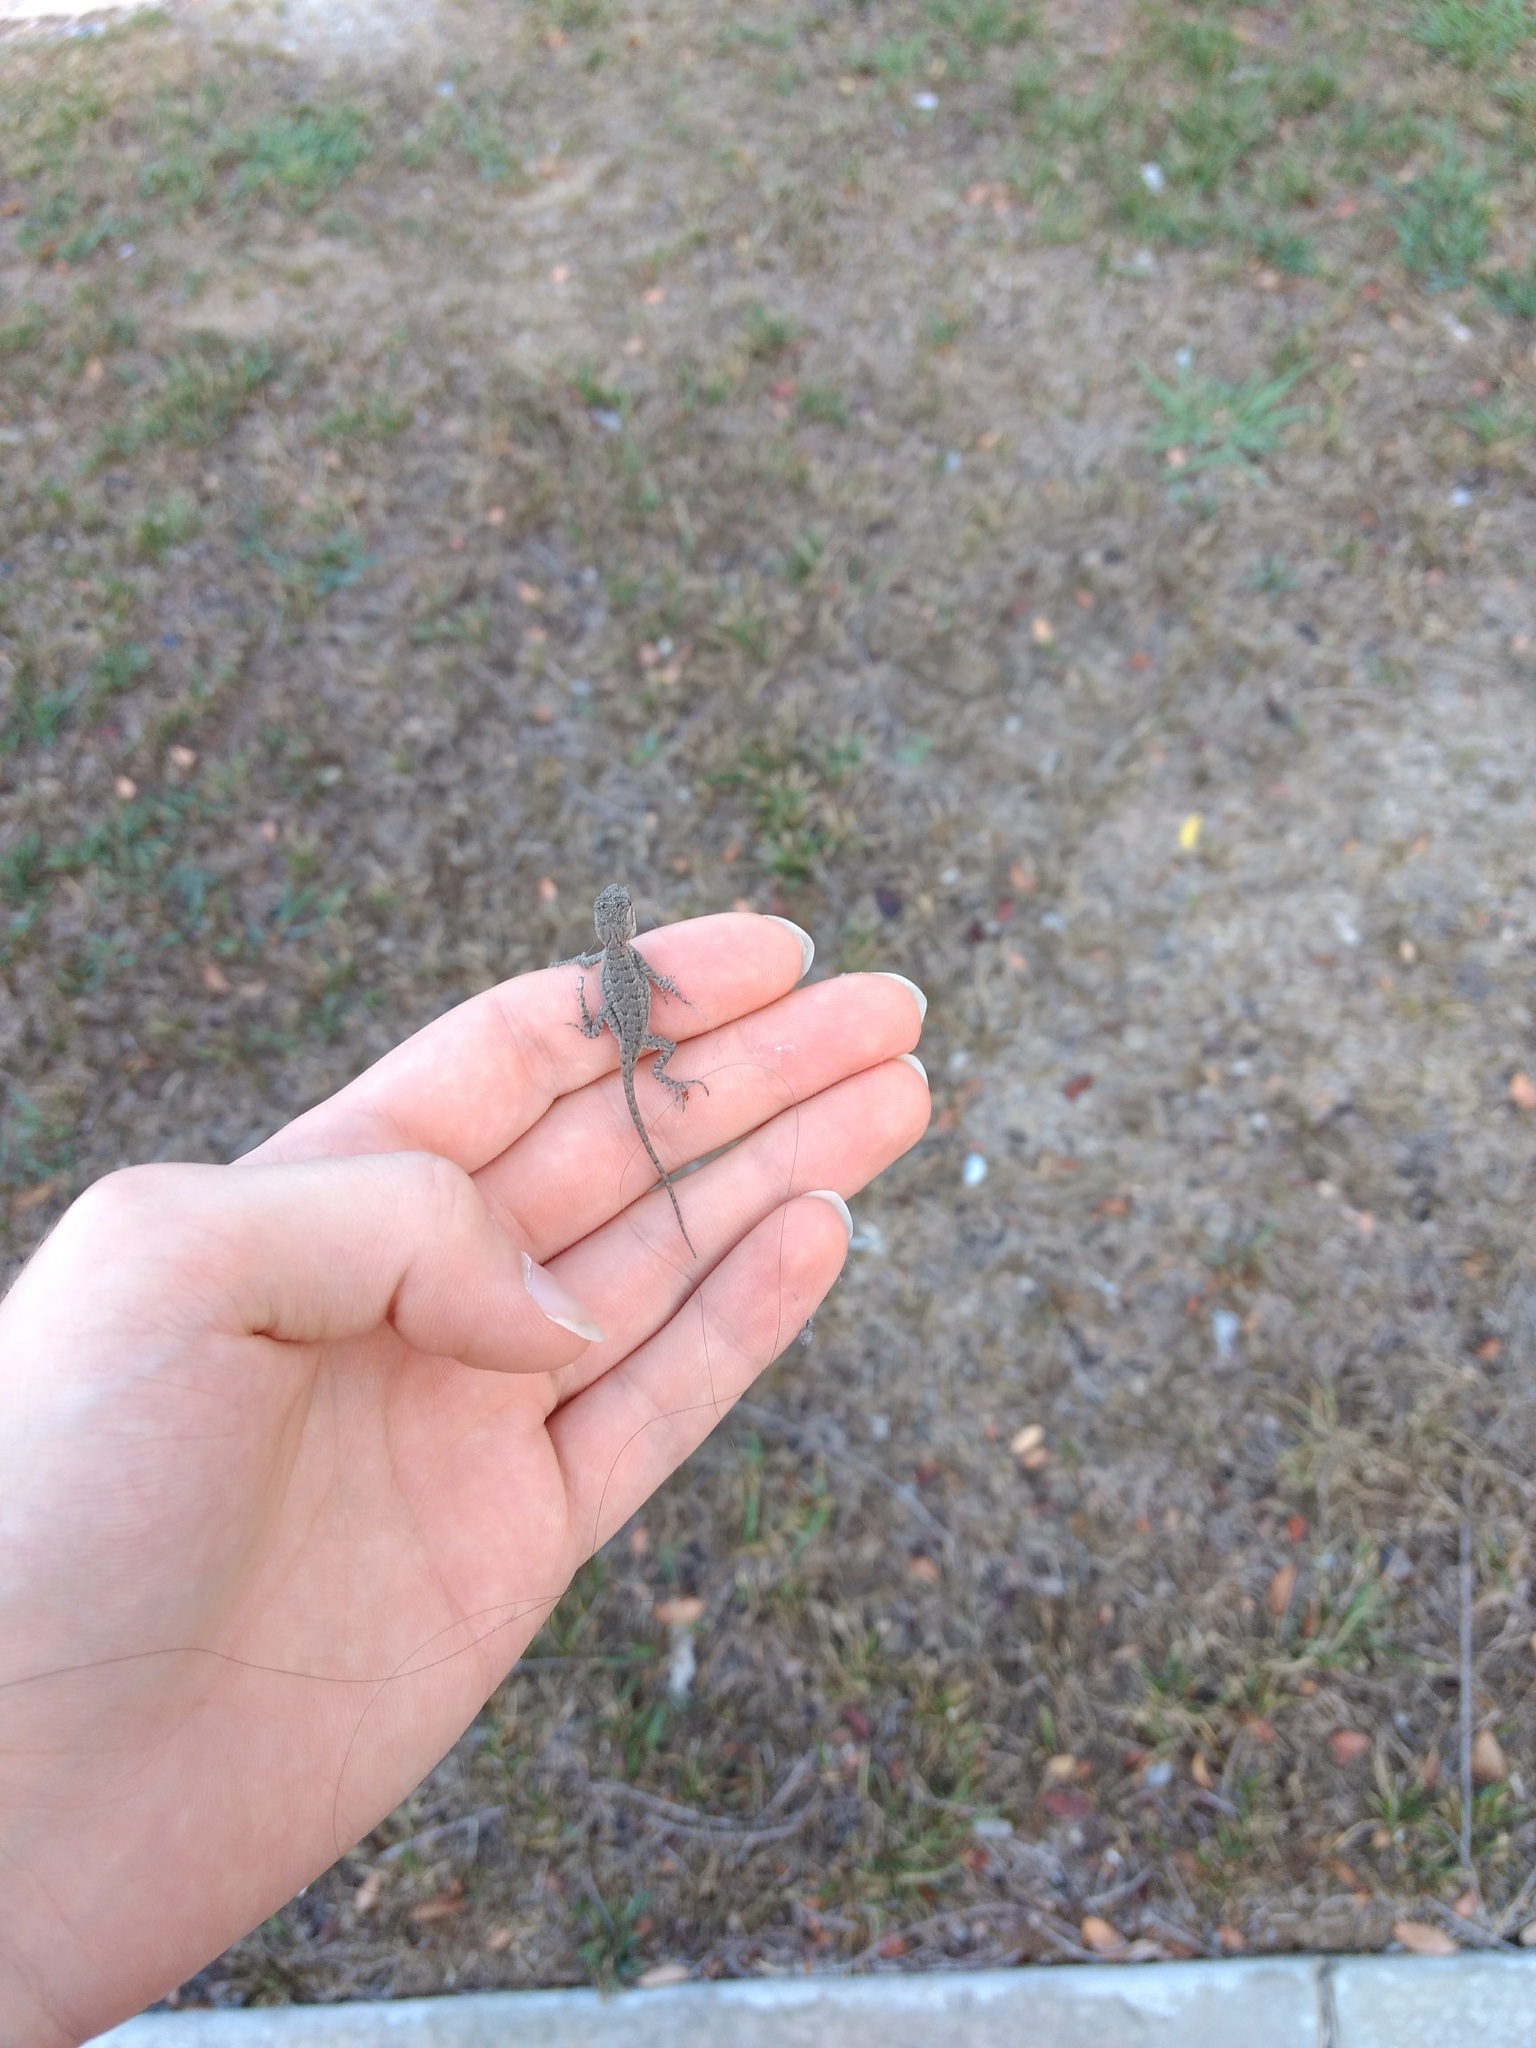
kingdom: Animalia
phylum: Chordata
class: Squamata
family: Phrynosomatidae
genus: Sceloporus
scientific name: Sceloporus occidentalis
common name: Western fence lizard
